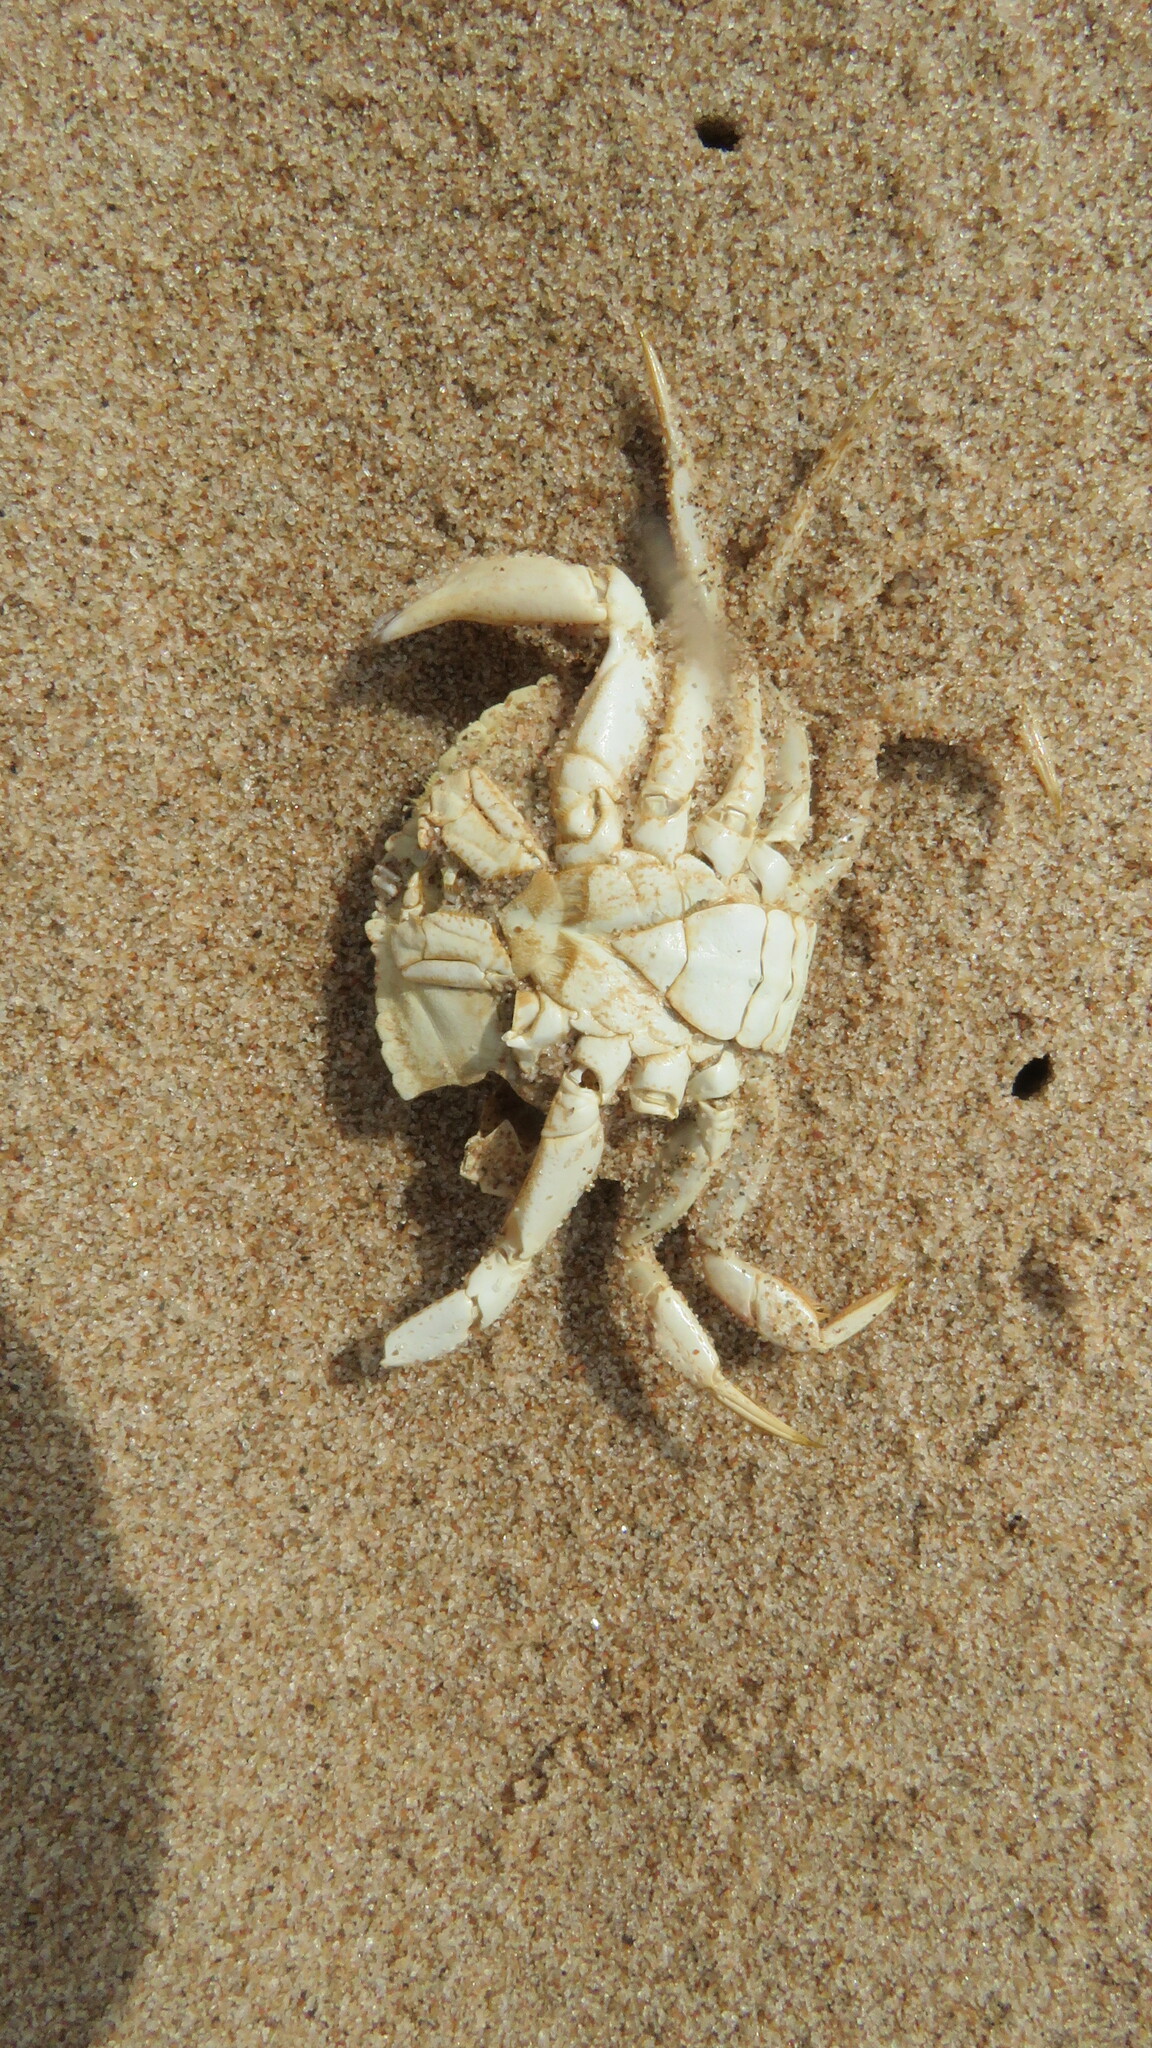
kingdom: Animalia
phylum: Arthropoda
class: Malacostraca
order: Decapoda
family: Cancridae
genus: Cancer
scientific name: Cancer irroratus
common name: Atlantic rock crab
